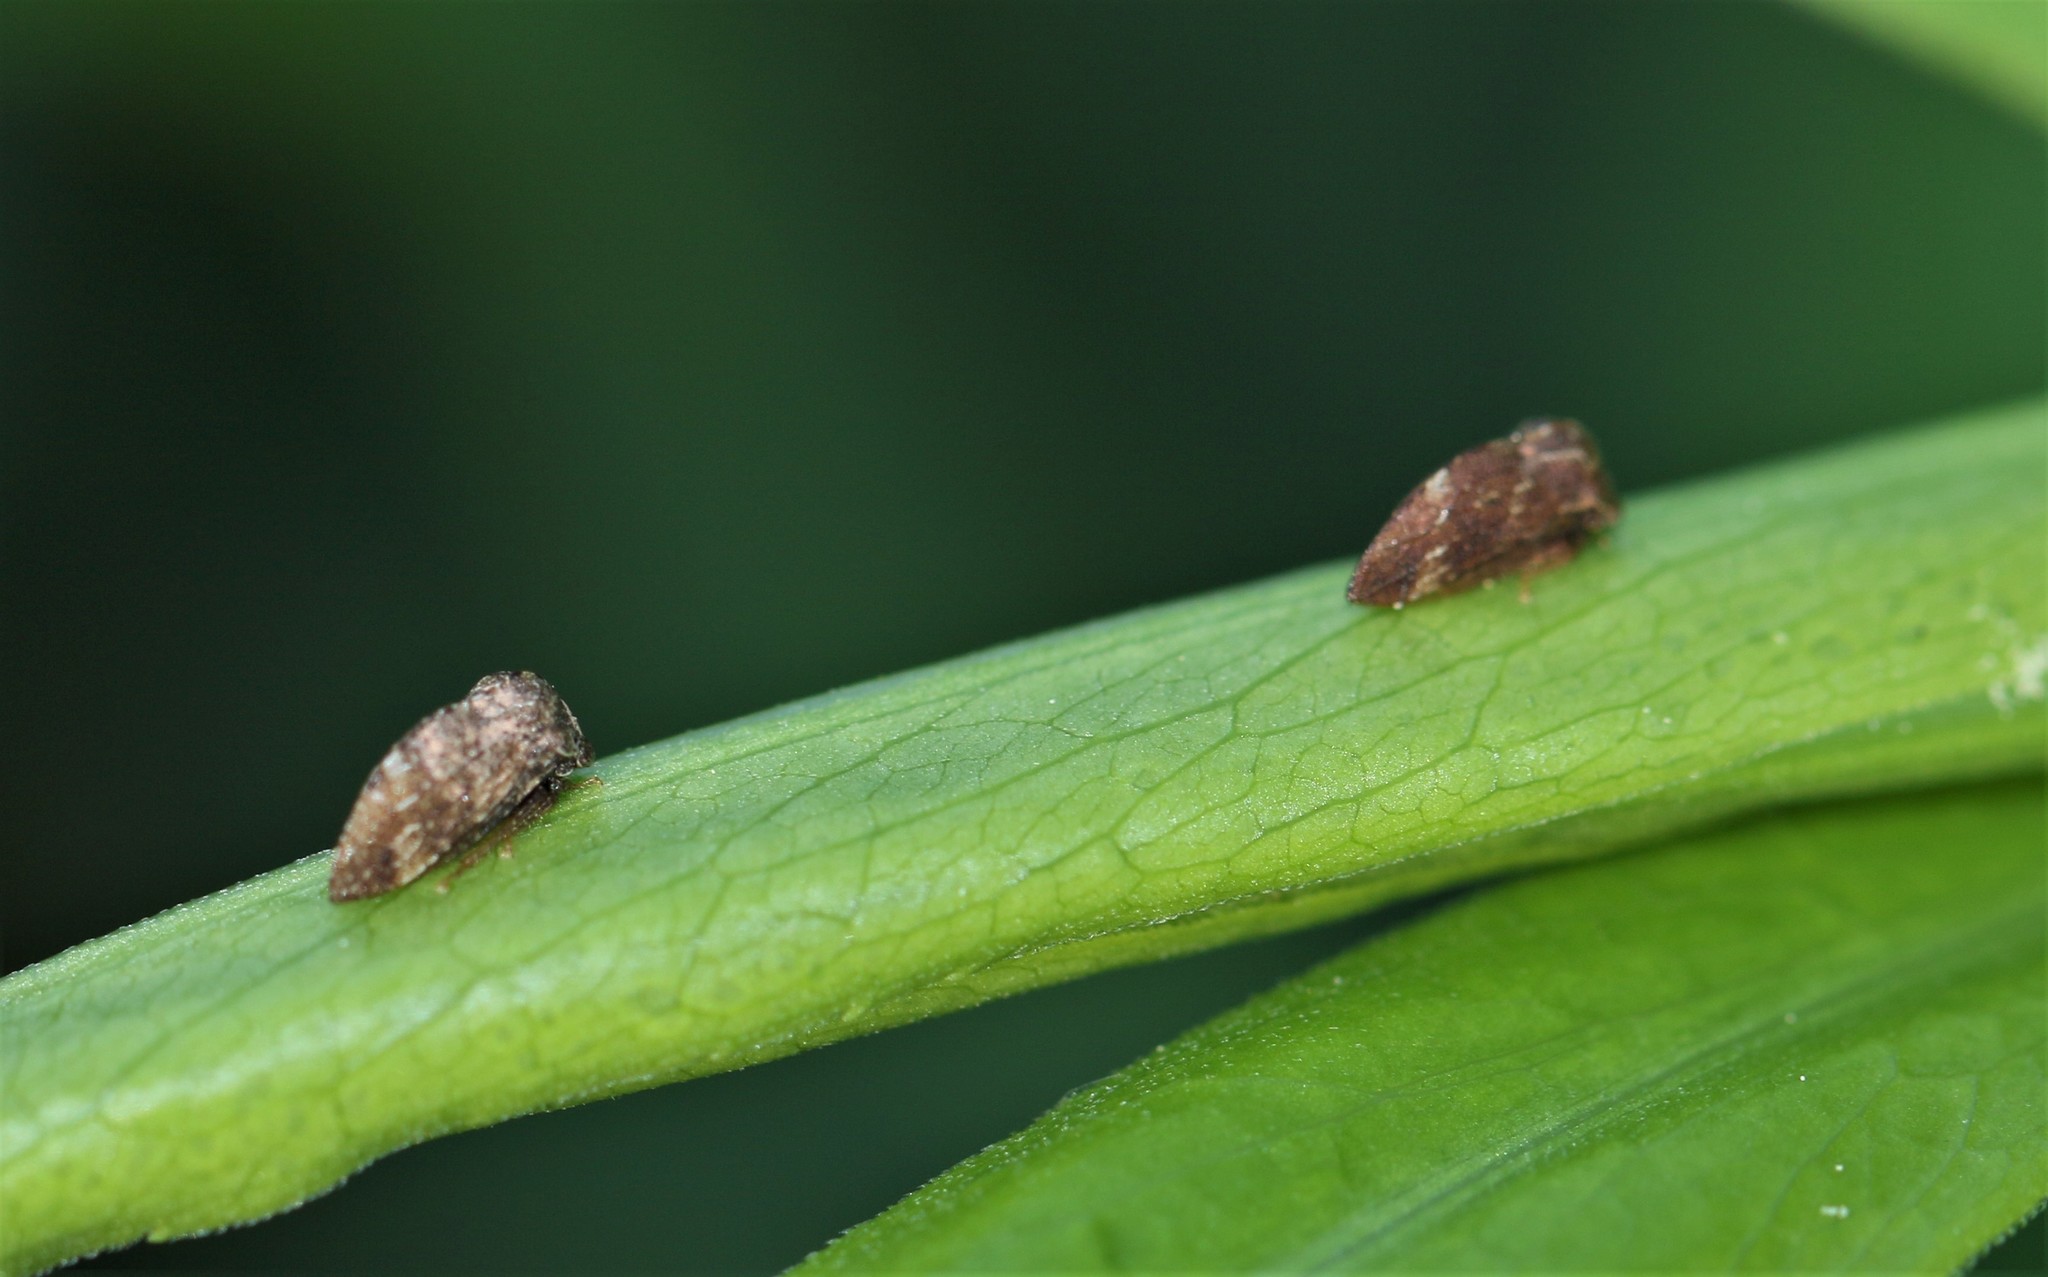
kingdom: Animalia
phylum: Arthropoda
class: Insecta
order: Hemiptera
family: Membracidae
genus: Publilia
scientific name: Publilia concava
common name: Aster treehopper
